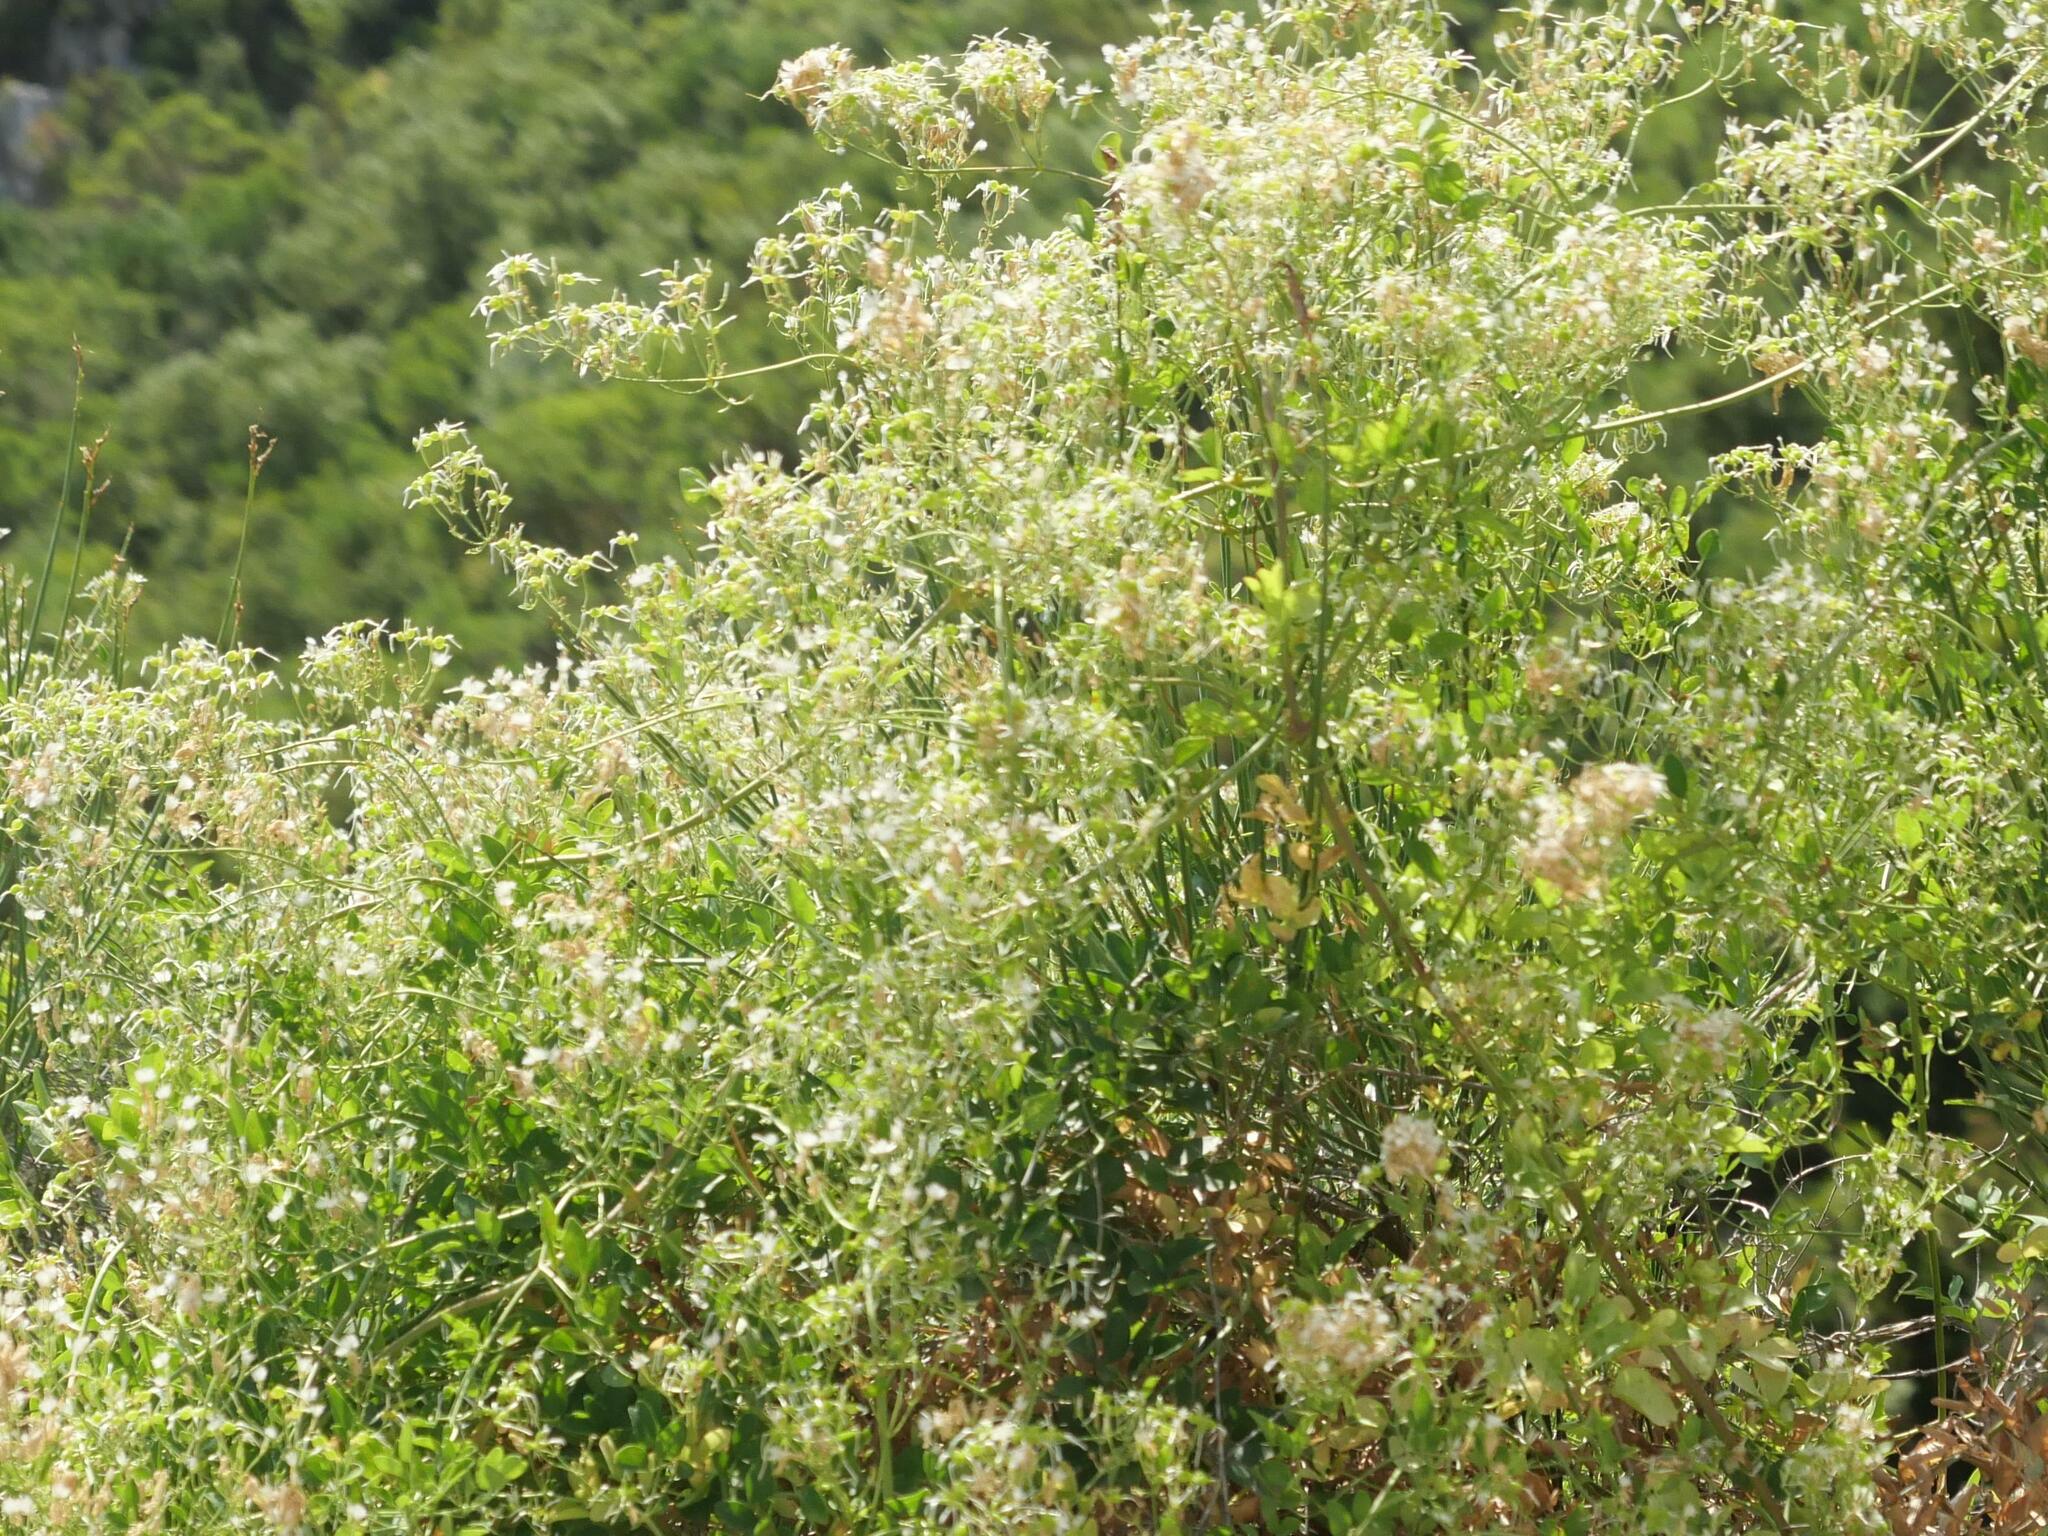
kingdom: Plantae
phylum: Tracheophyta
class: Magnoliopsida
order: Ranunculales
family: Ranunculaceae
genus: Clematis
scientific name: Clematis flammula
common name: Virgin's-bower
